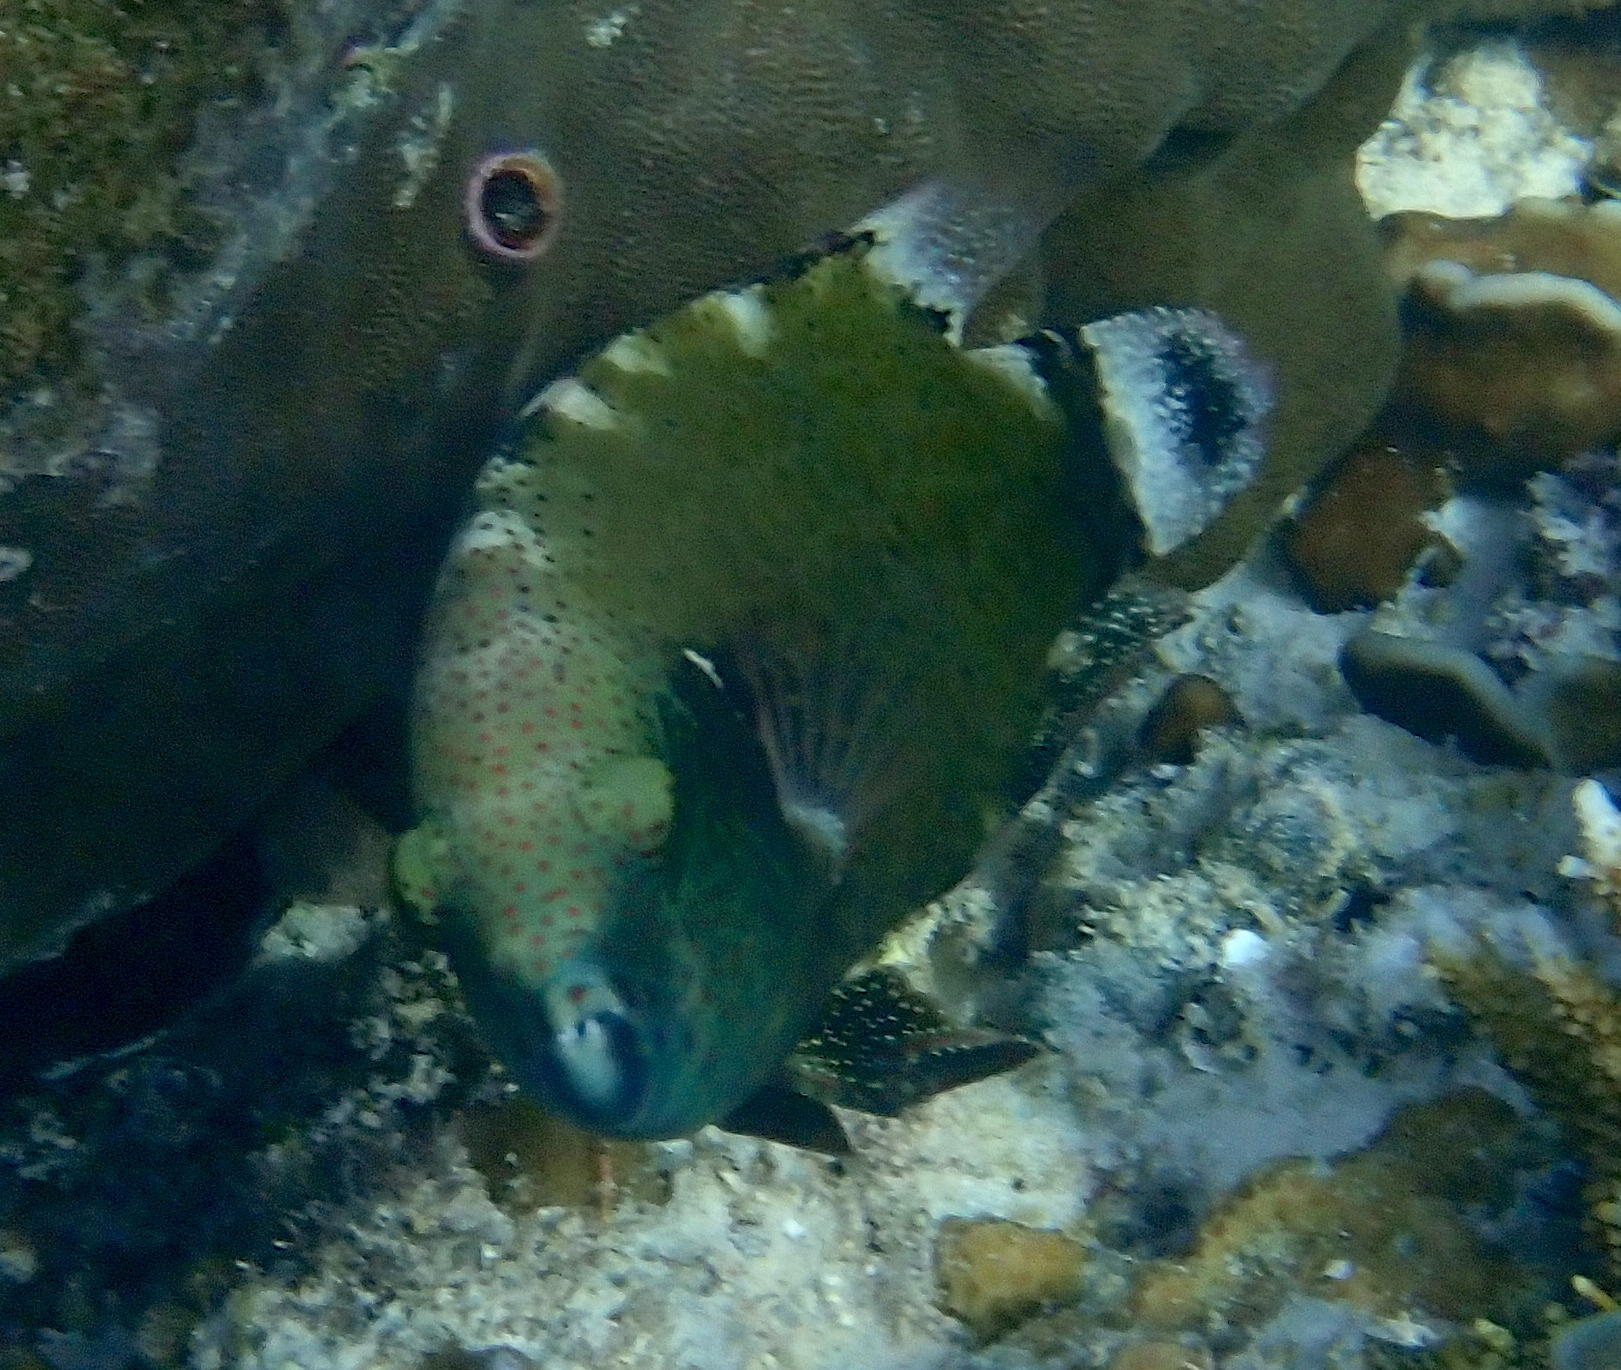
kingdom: Animalia
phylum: Chordata
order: Perciformes
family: Labridae
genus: Cheilinus
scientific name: Cheilinus chlorourus
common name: Floral wrasse
